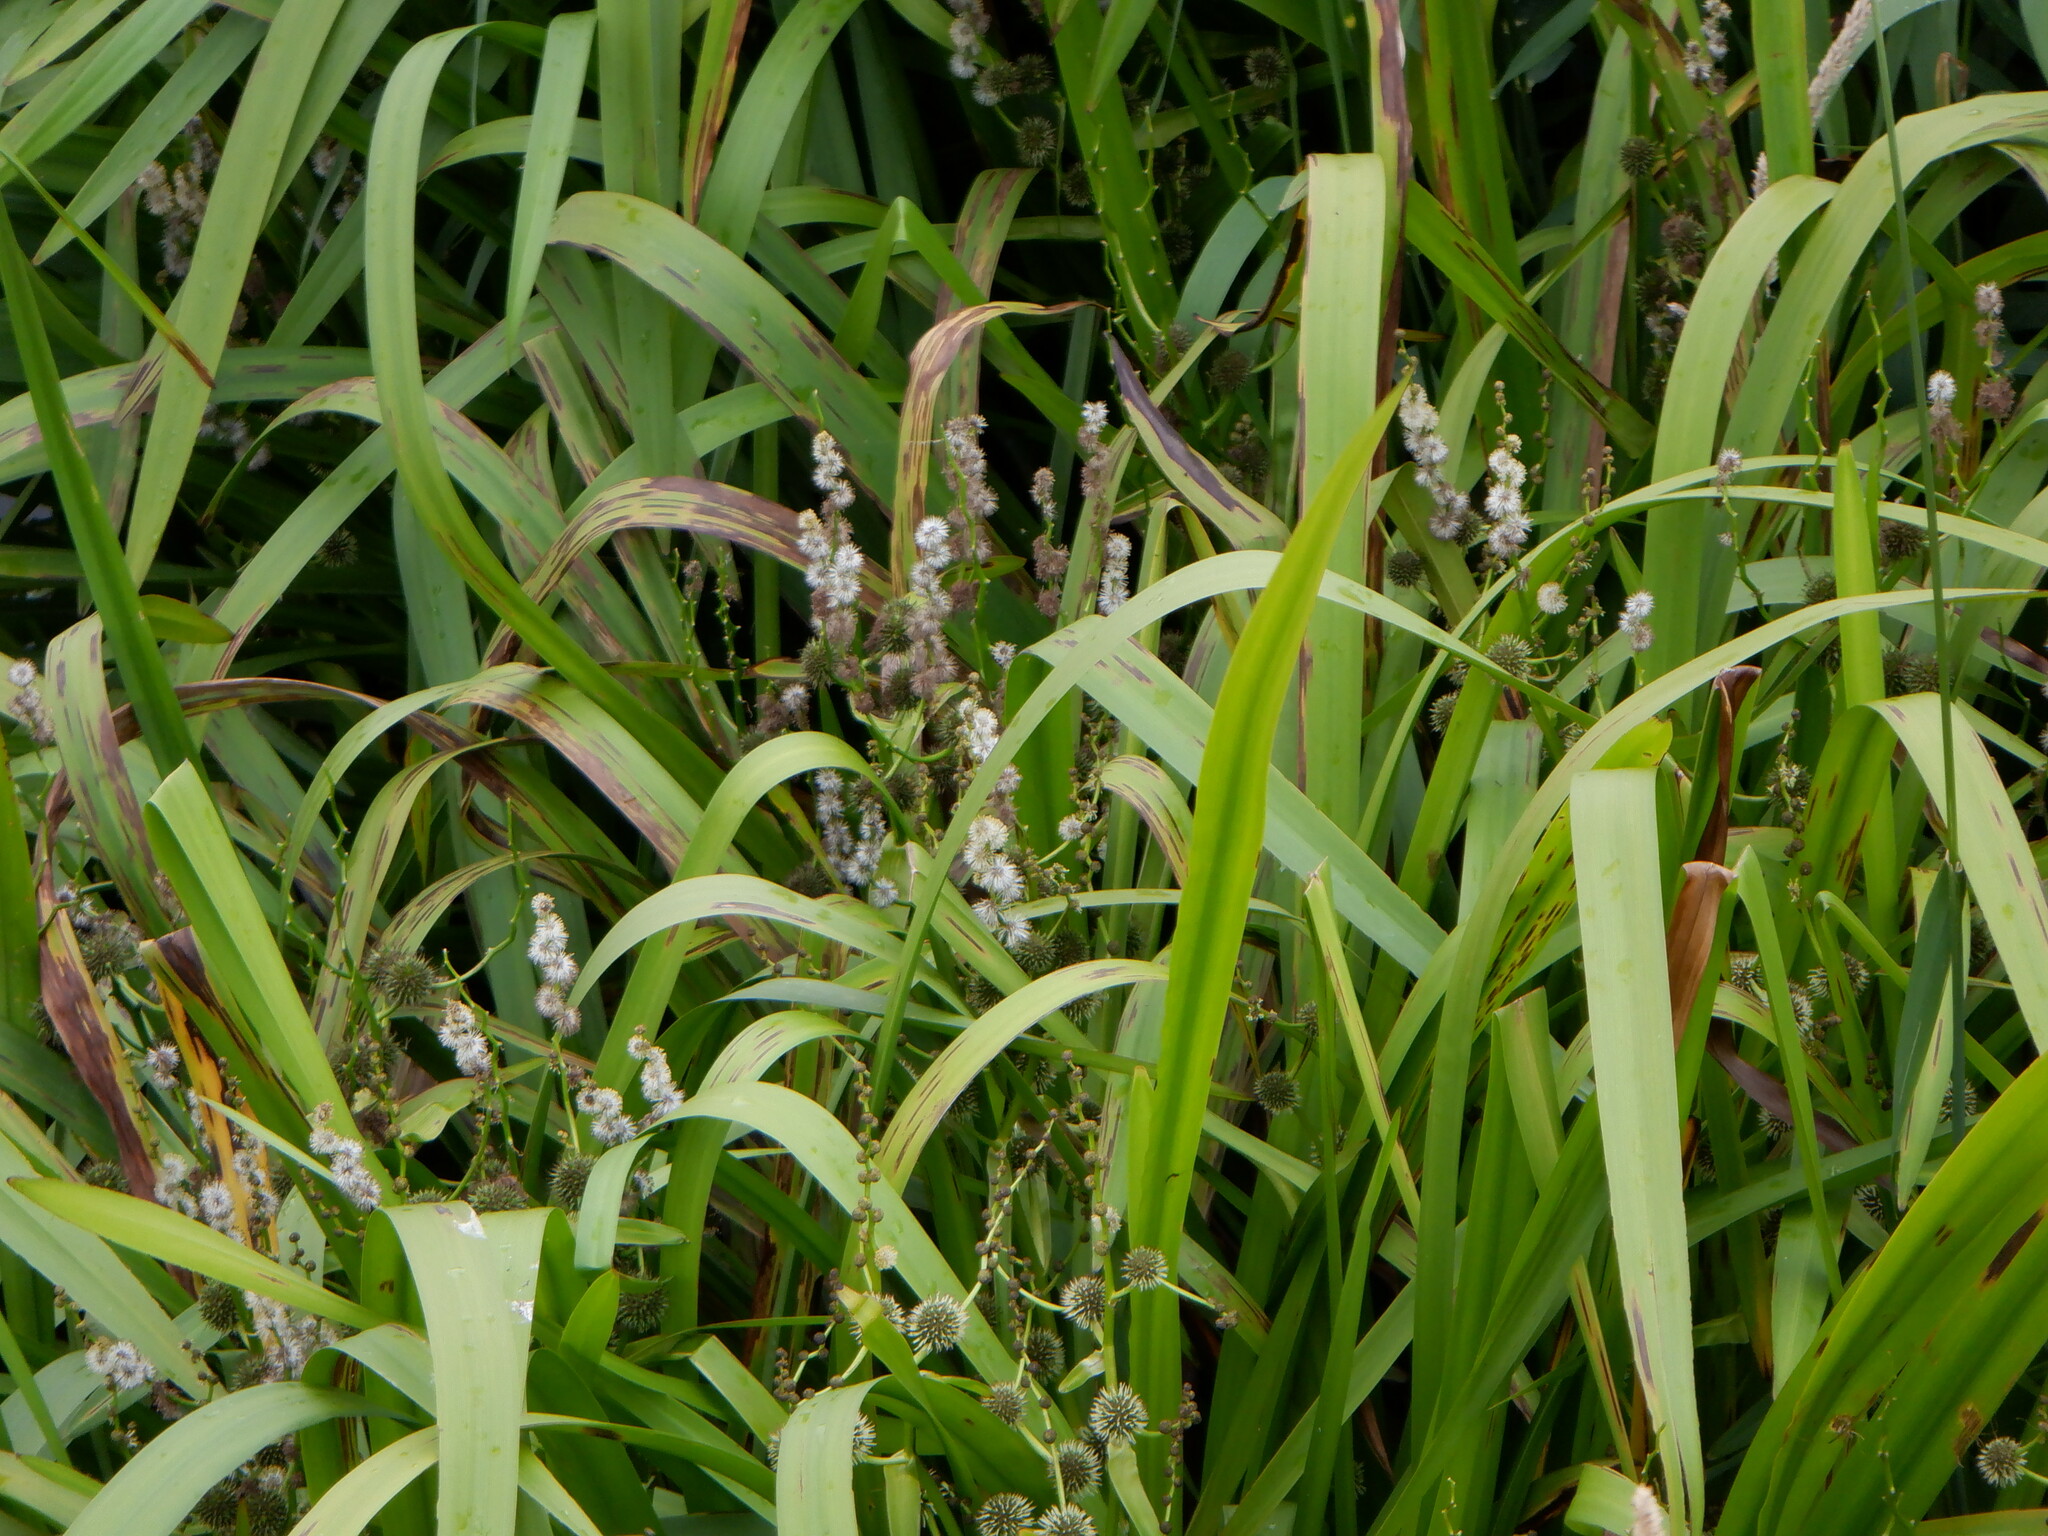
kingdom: Plantae
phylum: Tracheophyta
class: Liliopsida
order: Poales
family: Typhaceae
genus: Sparganium
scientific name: Sparganium erectum
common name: Branched bur-reed
